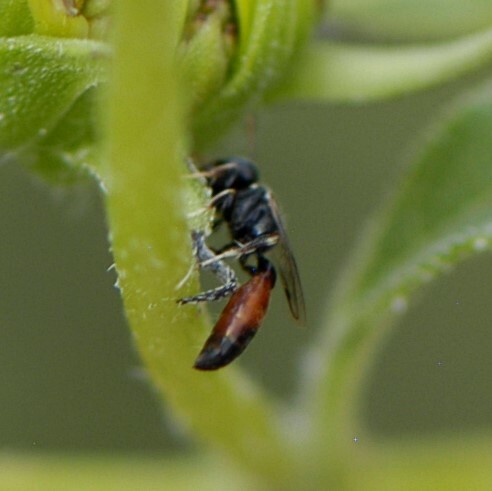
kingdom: Animalia
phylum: Arthropoda
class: Insecta
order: Hymenoptera
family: Crabronidae
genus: Mimesa
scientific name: Mimesa
